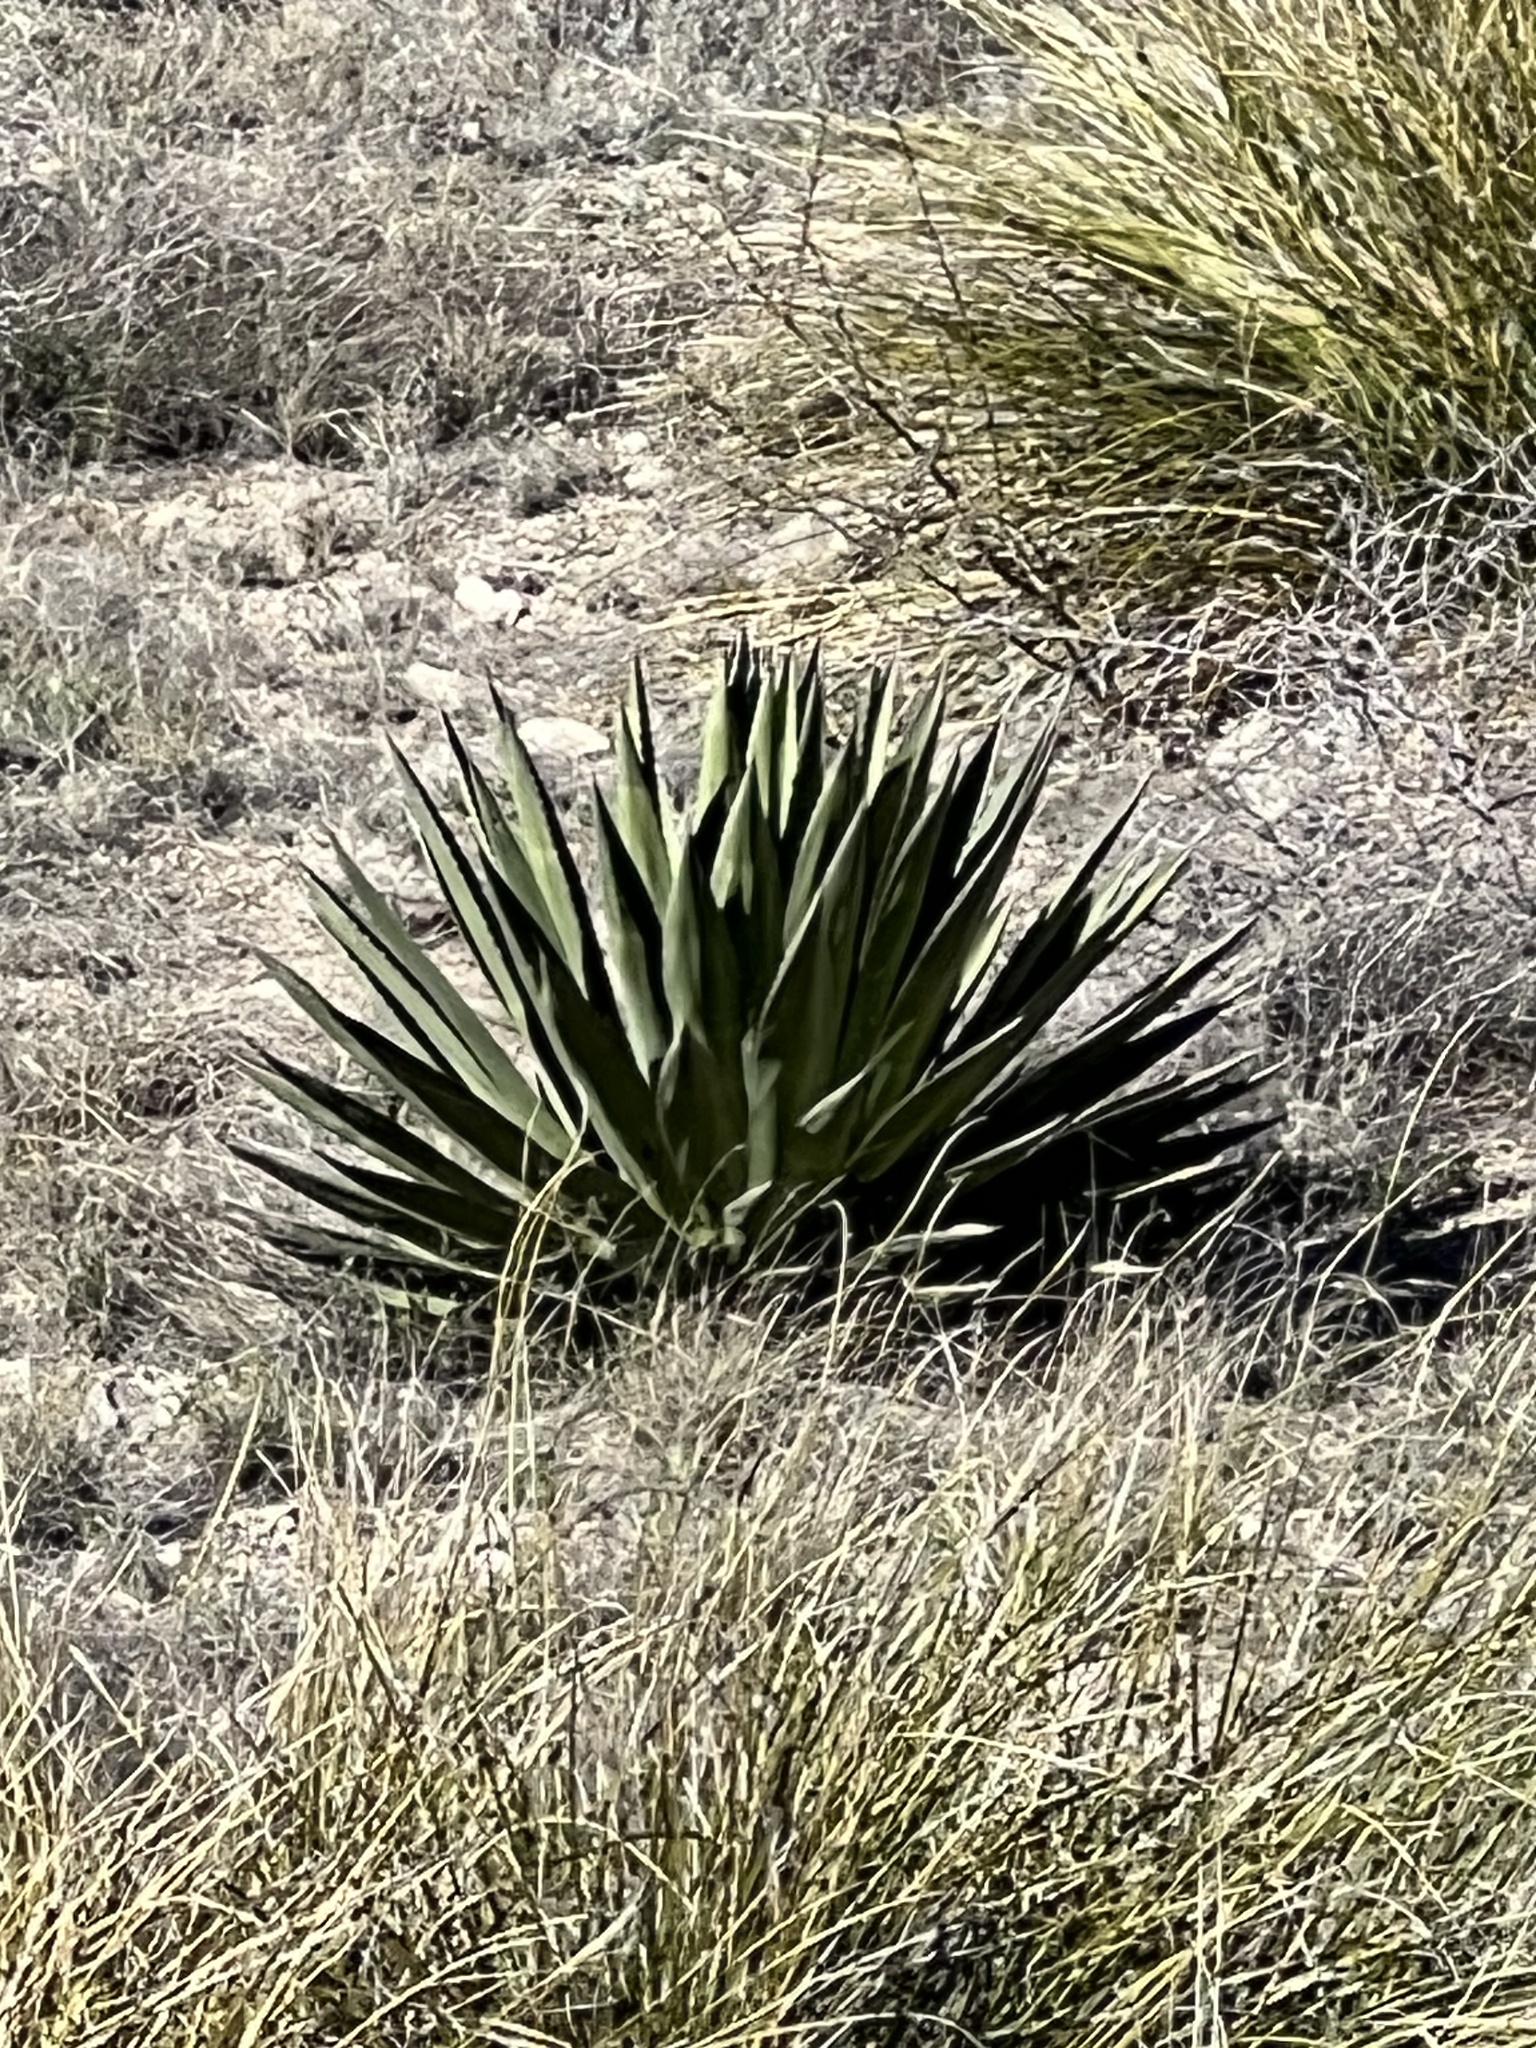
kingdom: Plantae
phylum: Tracheophyta
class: Liliopsida
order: Asparagales
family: Asparagaceae
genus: Agave
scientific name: Agave palmeri
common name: Palmer agave
